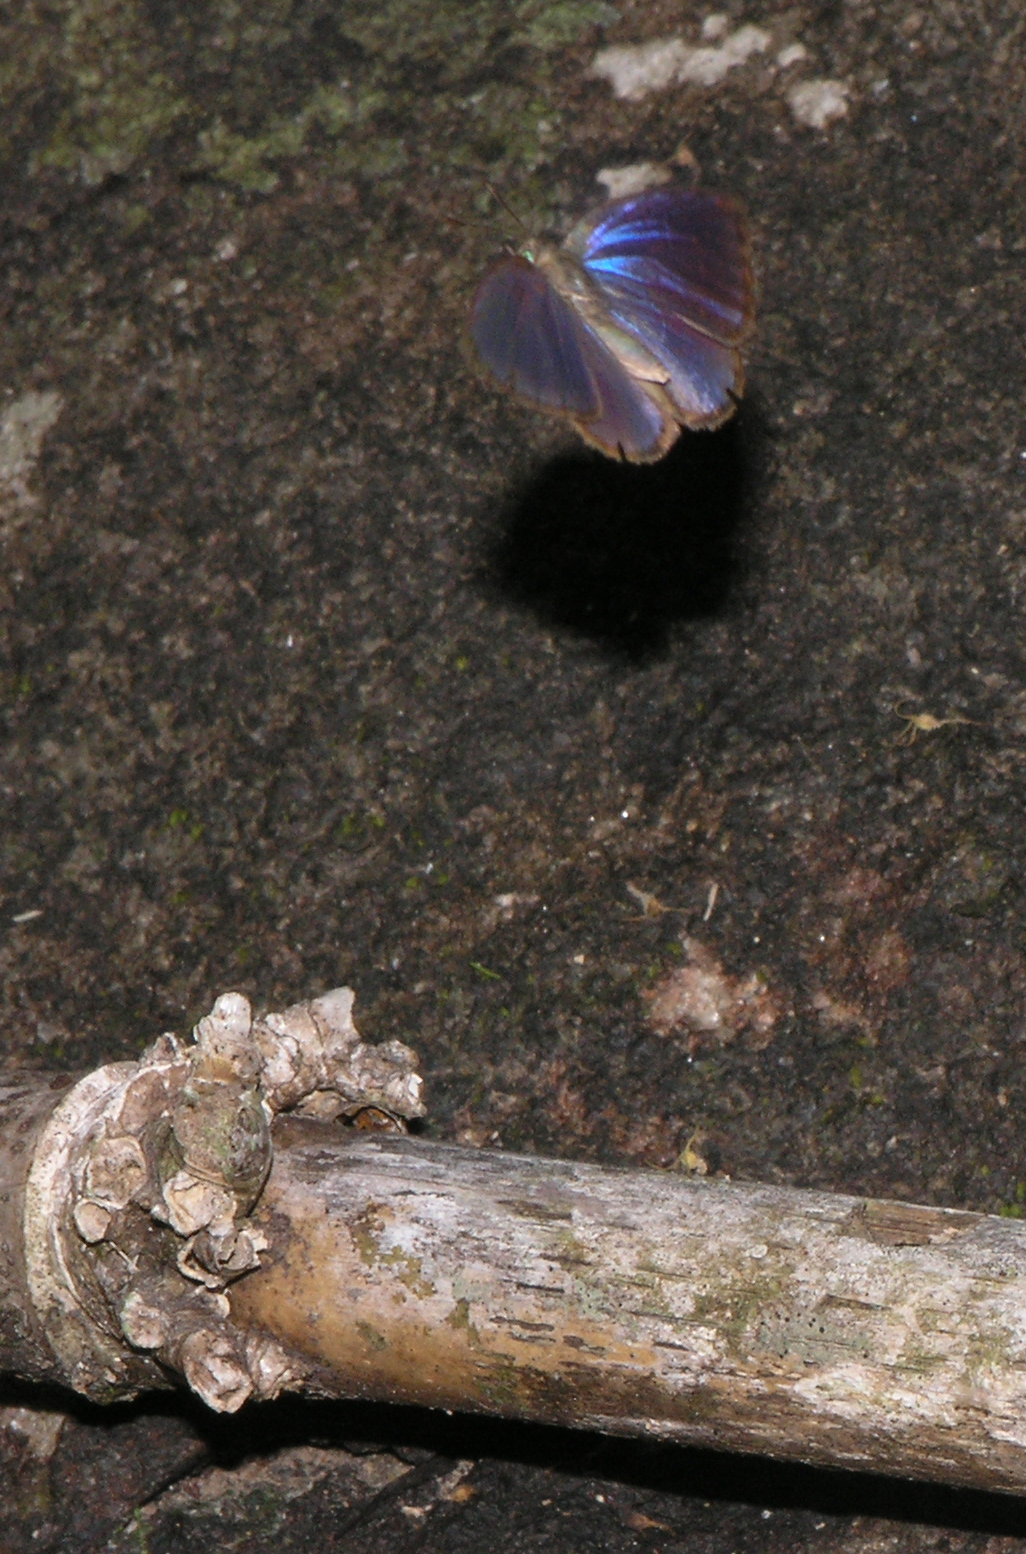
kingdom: Animalia
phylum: Arthropoda
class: Insecta
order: Lepidoptera
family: Lycaenidae
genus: Arhopala
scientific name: Arhopala perimuta
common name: Yellowdisc oakblue
